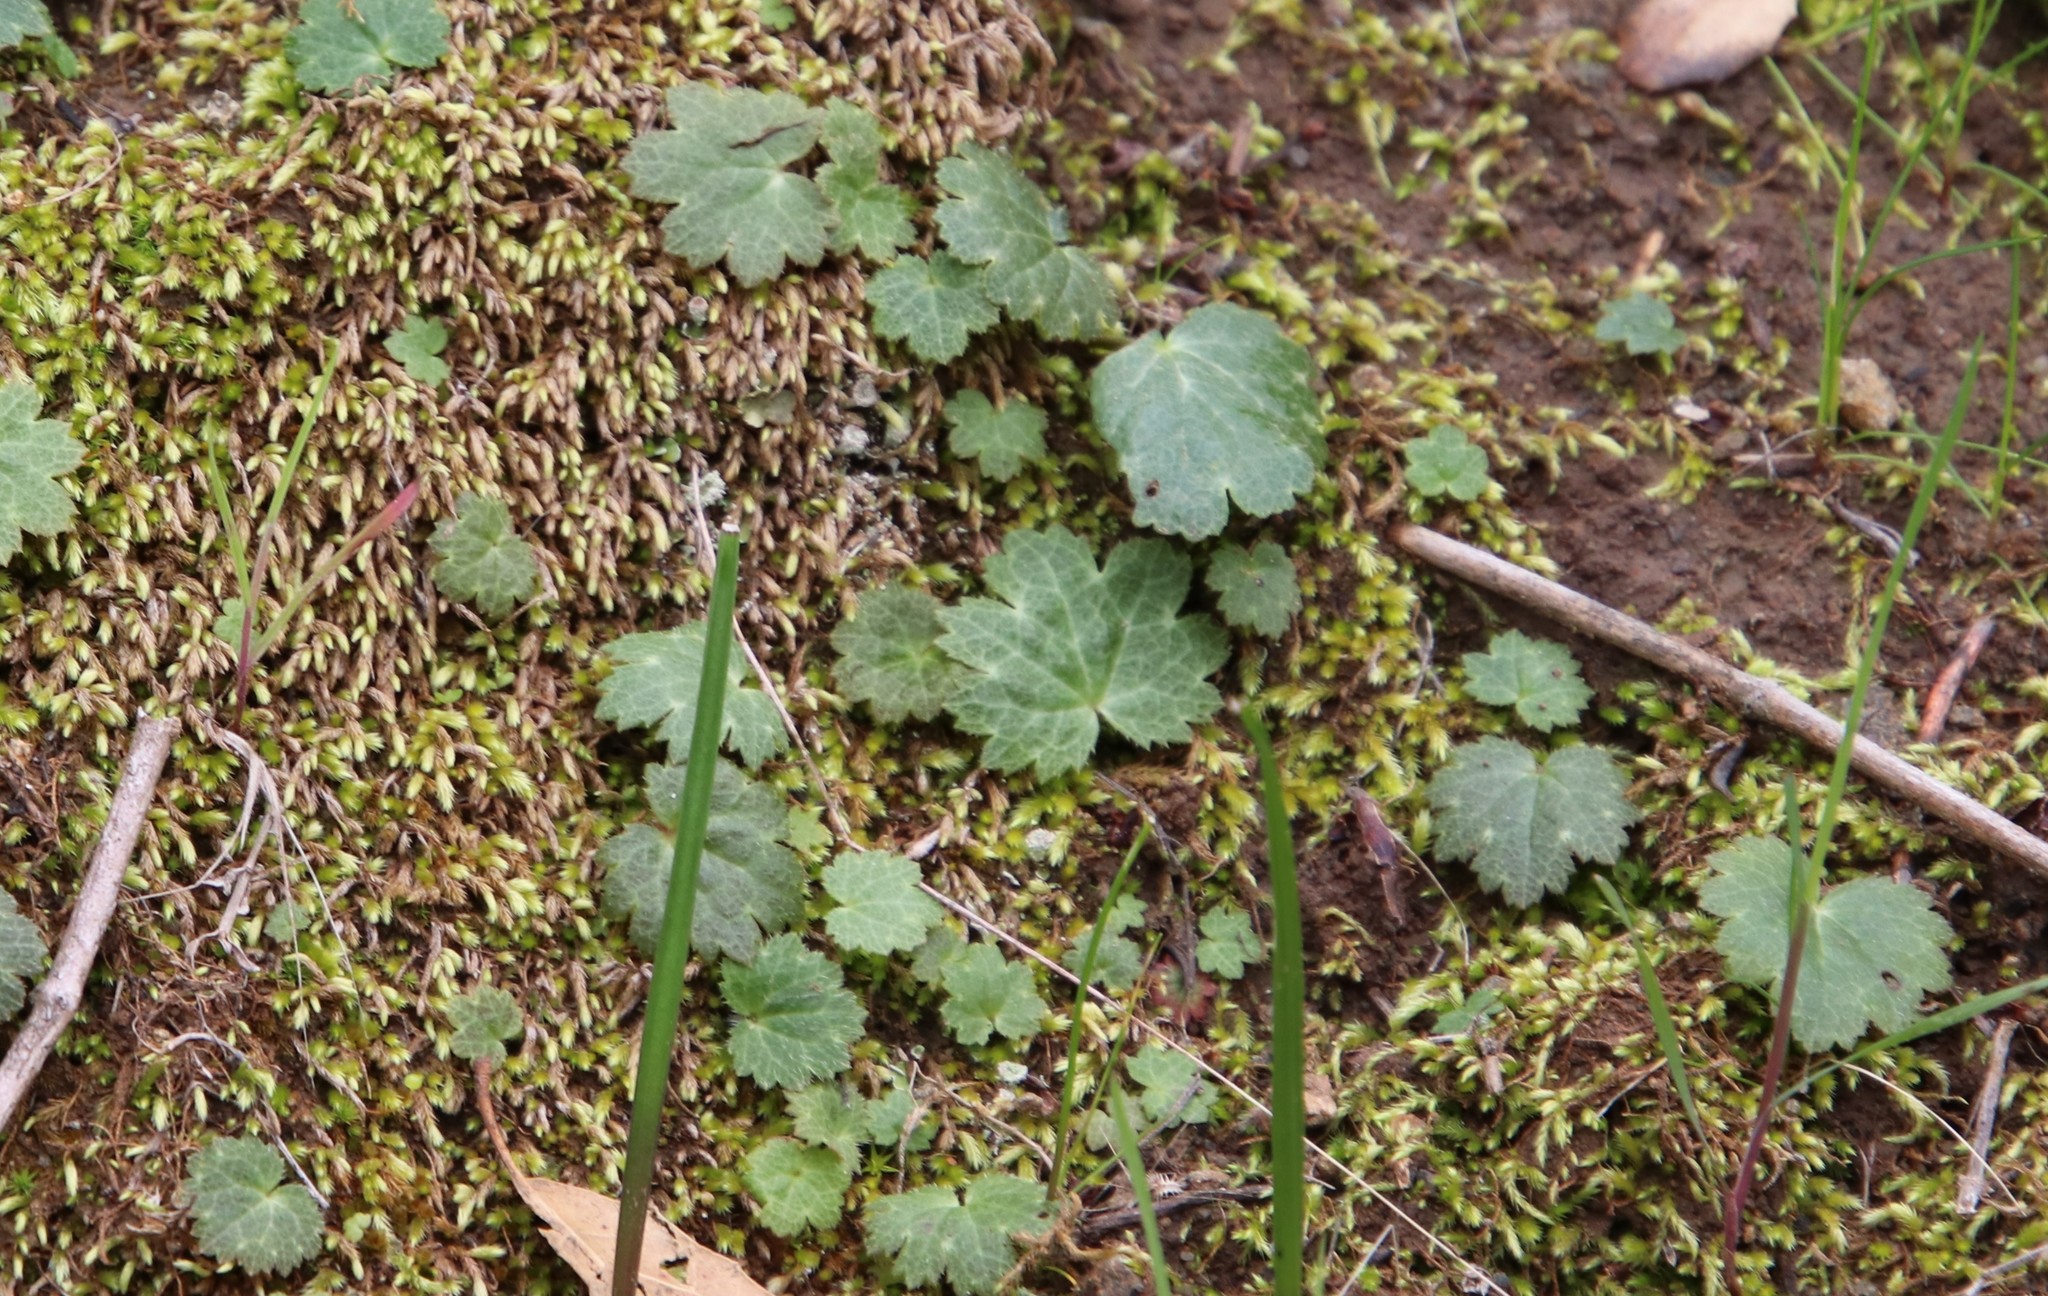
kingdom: Plantae
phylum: Tracheophyta
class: Magnoliopsida
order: Saxifragales
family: Saxifragaceae
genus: Jepsonia
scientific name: Jepsonia parryi
